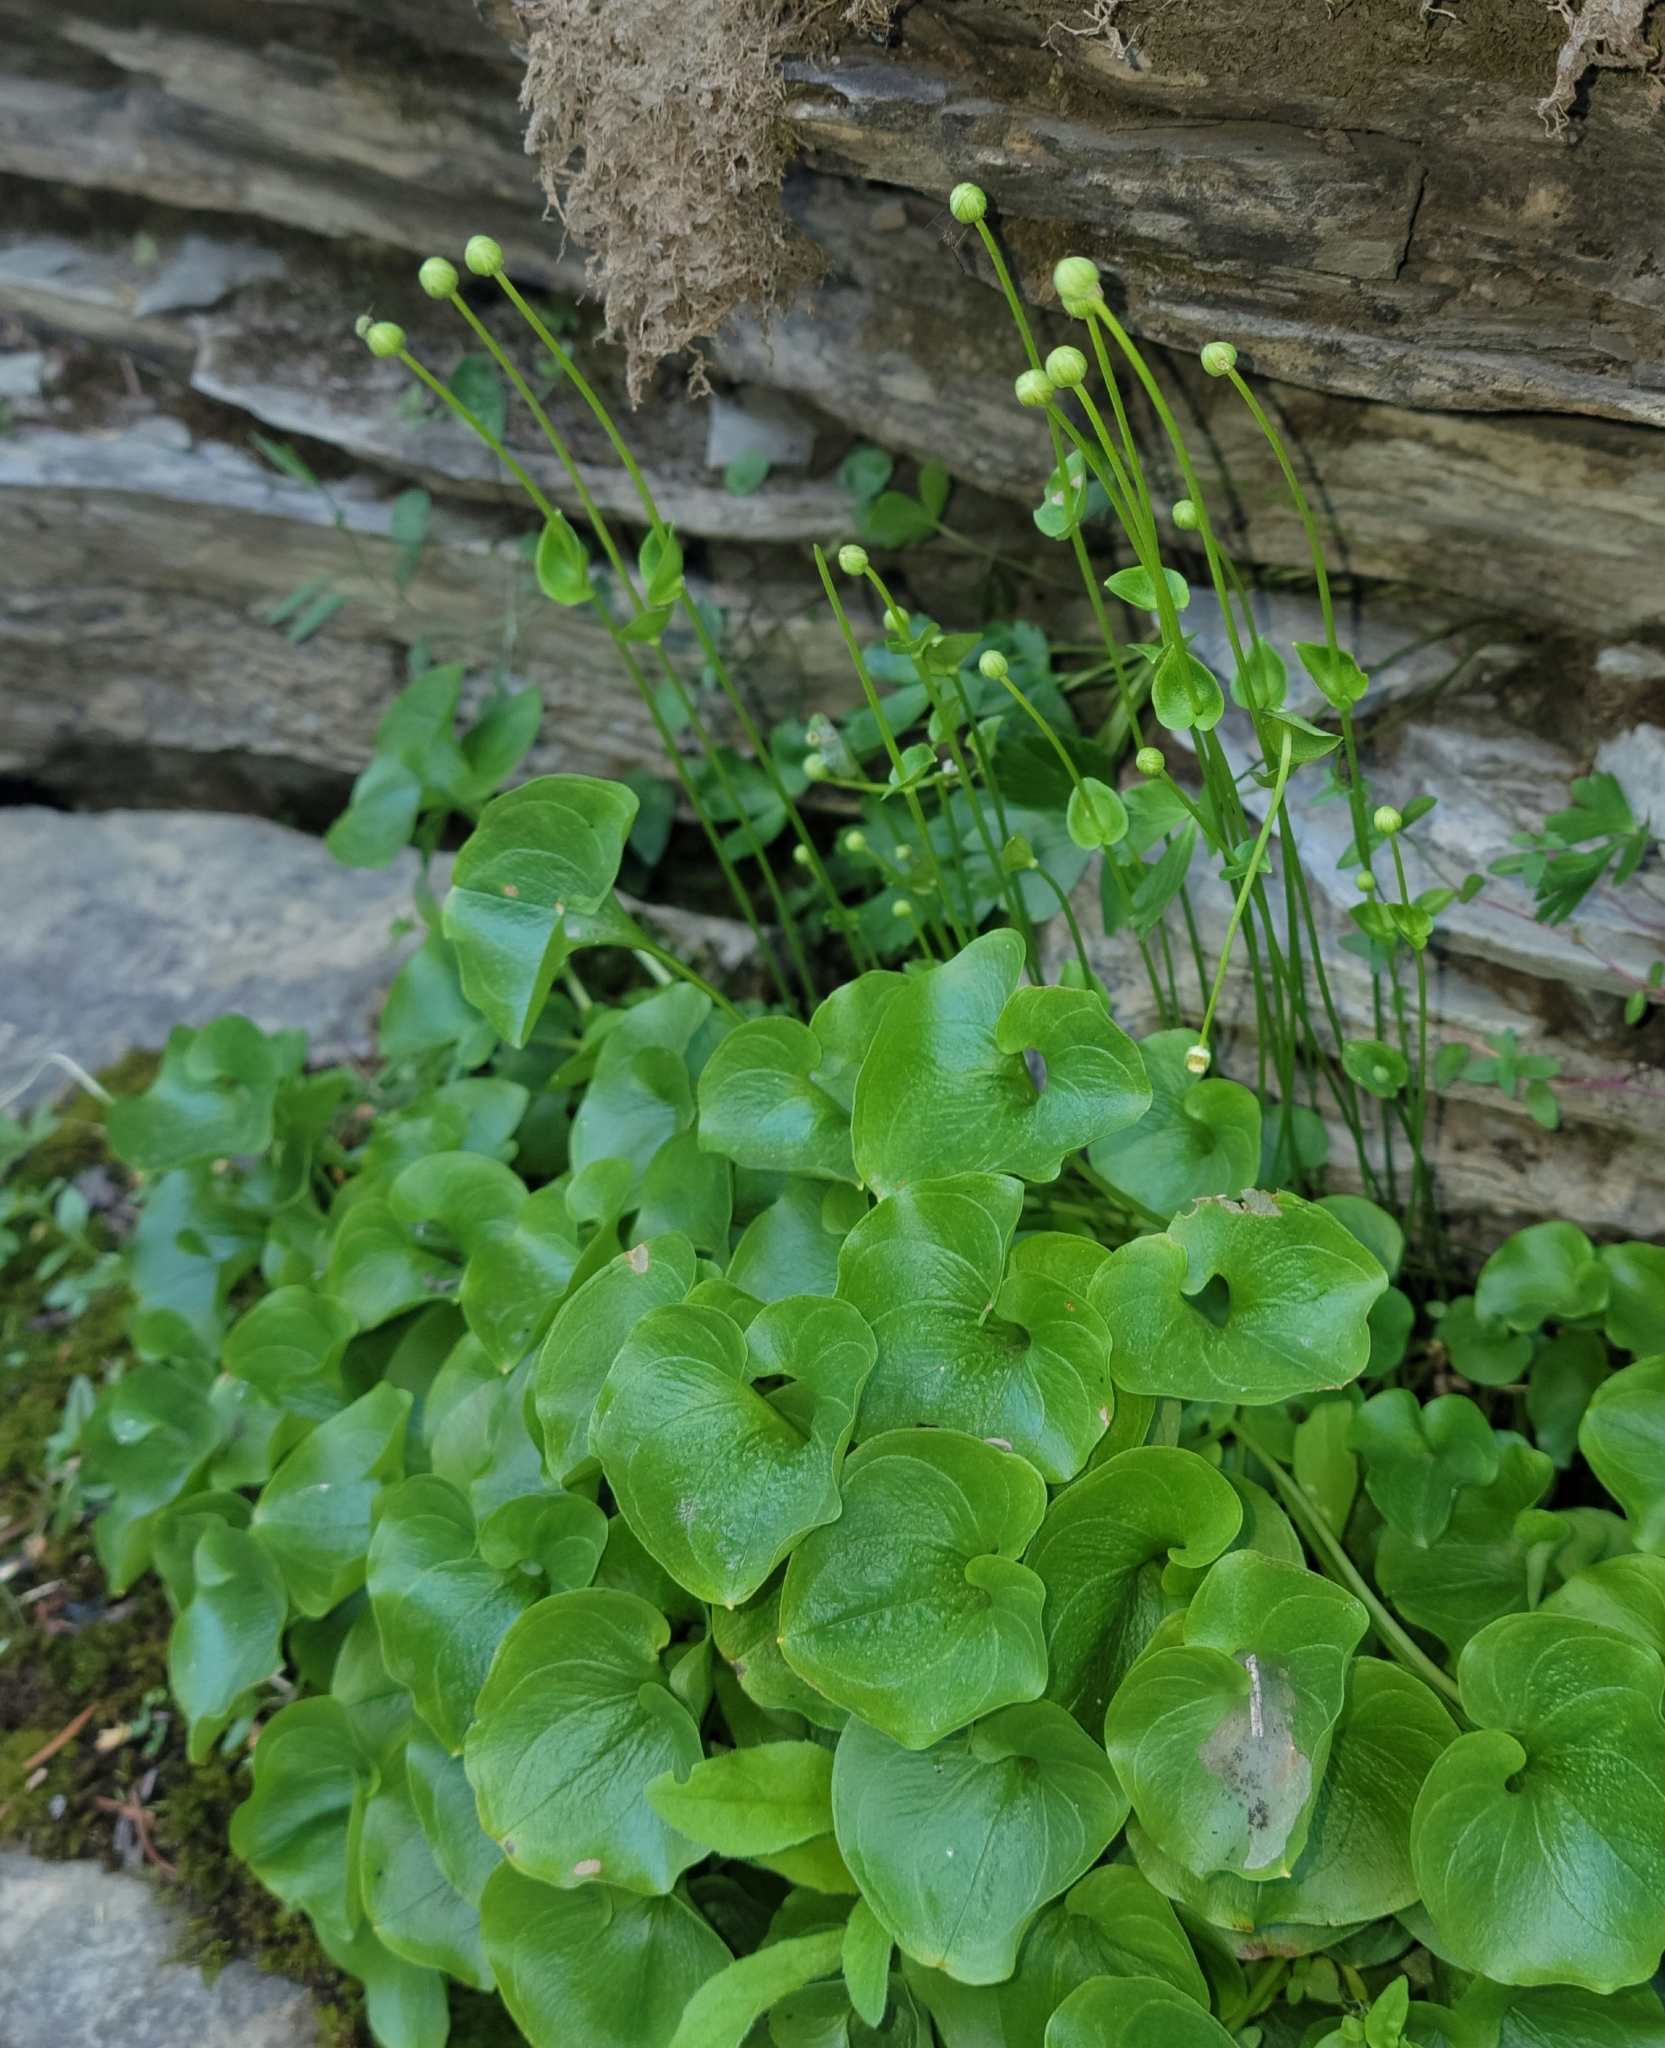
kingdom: Plantae
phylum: Tracheophyta
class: Magnoliopsida
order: Celastrales
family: Parnassiaceae
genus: Parnassia
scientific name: Parnassia fimbriata
